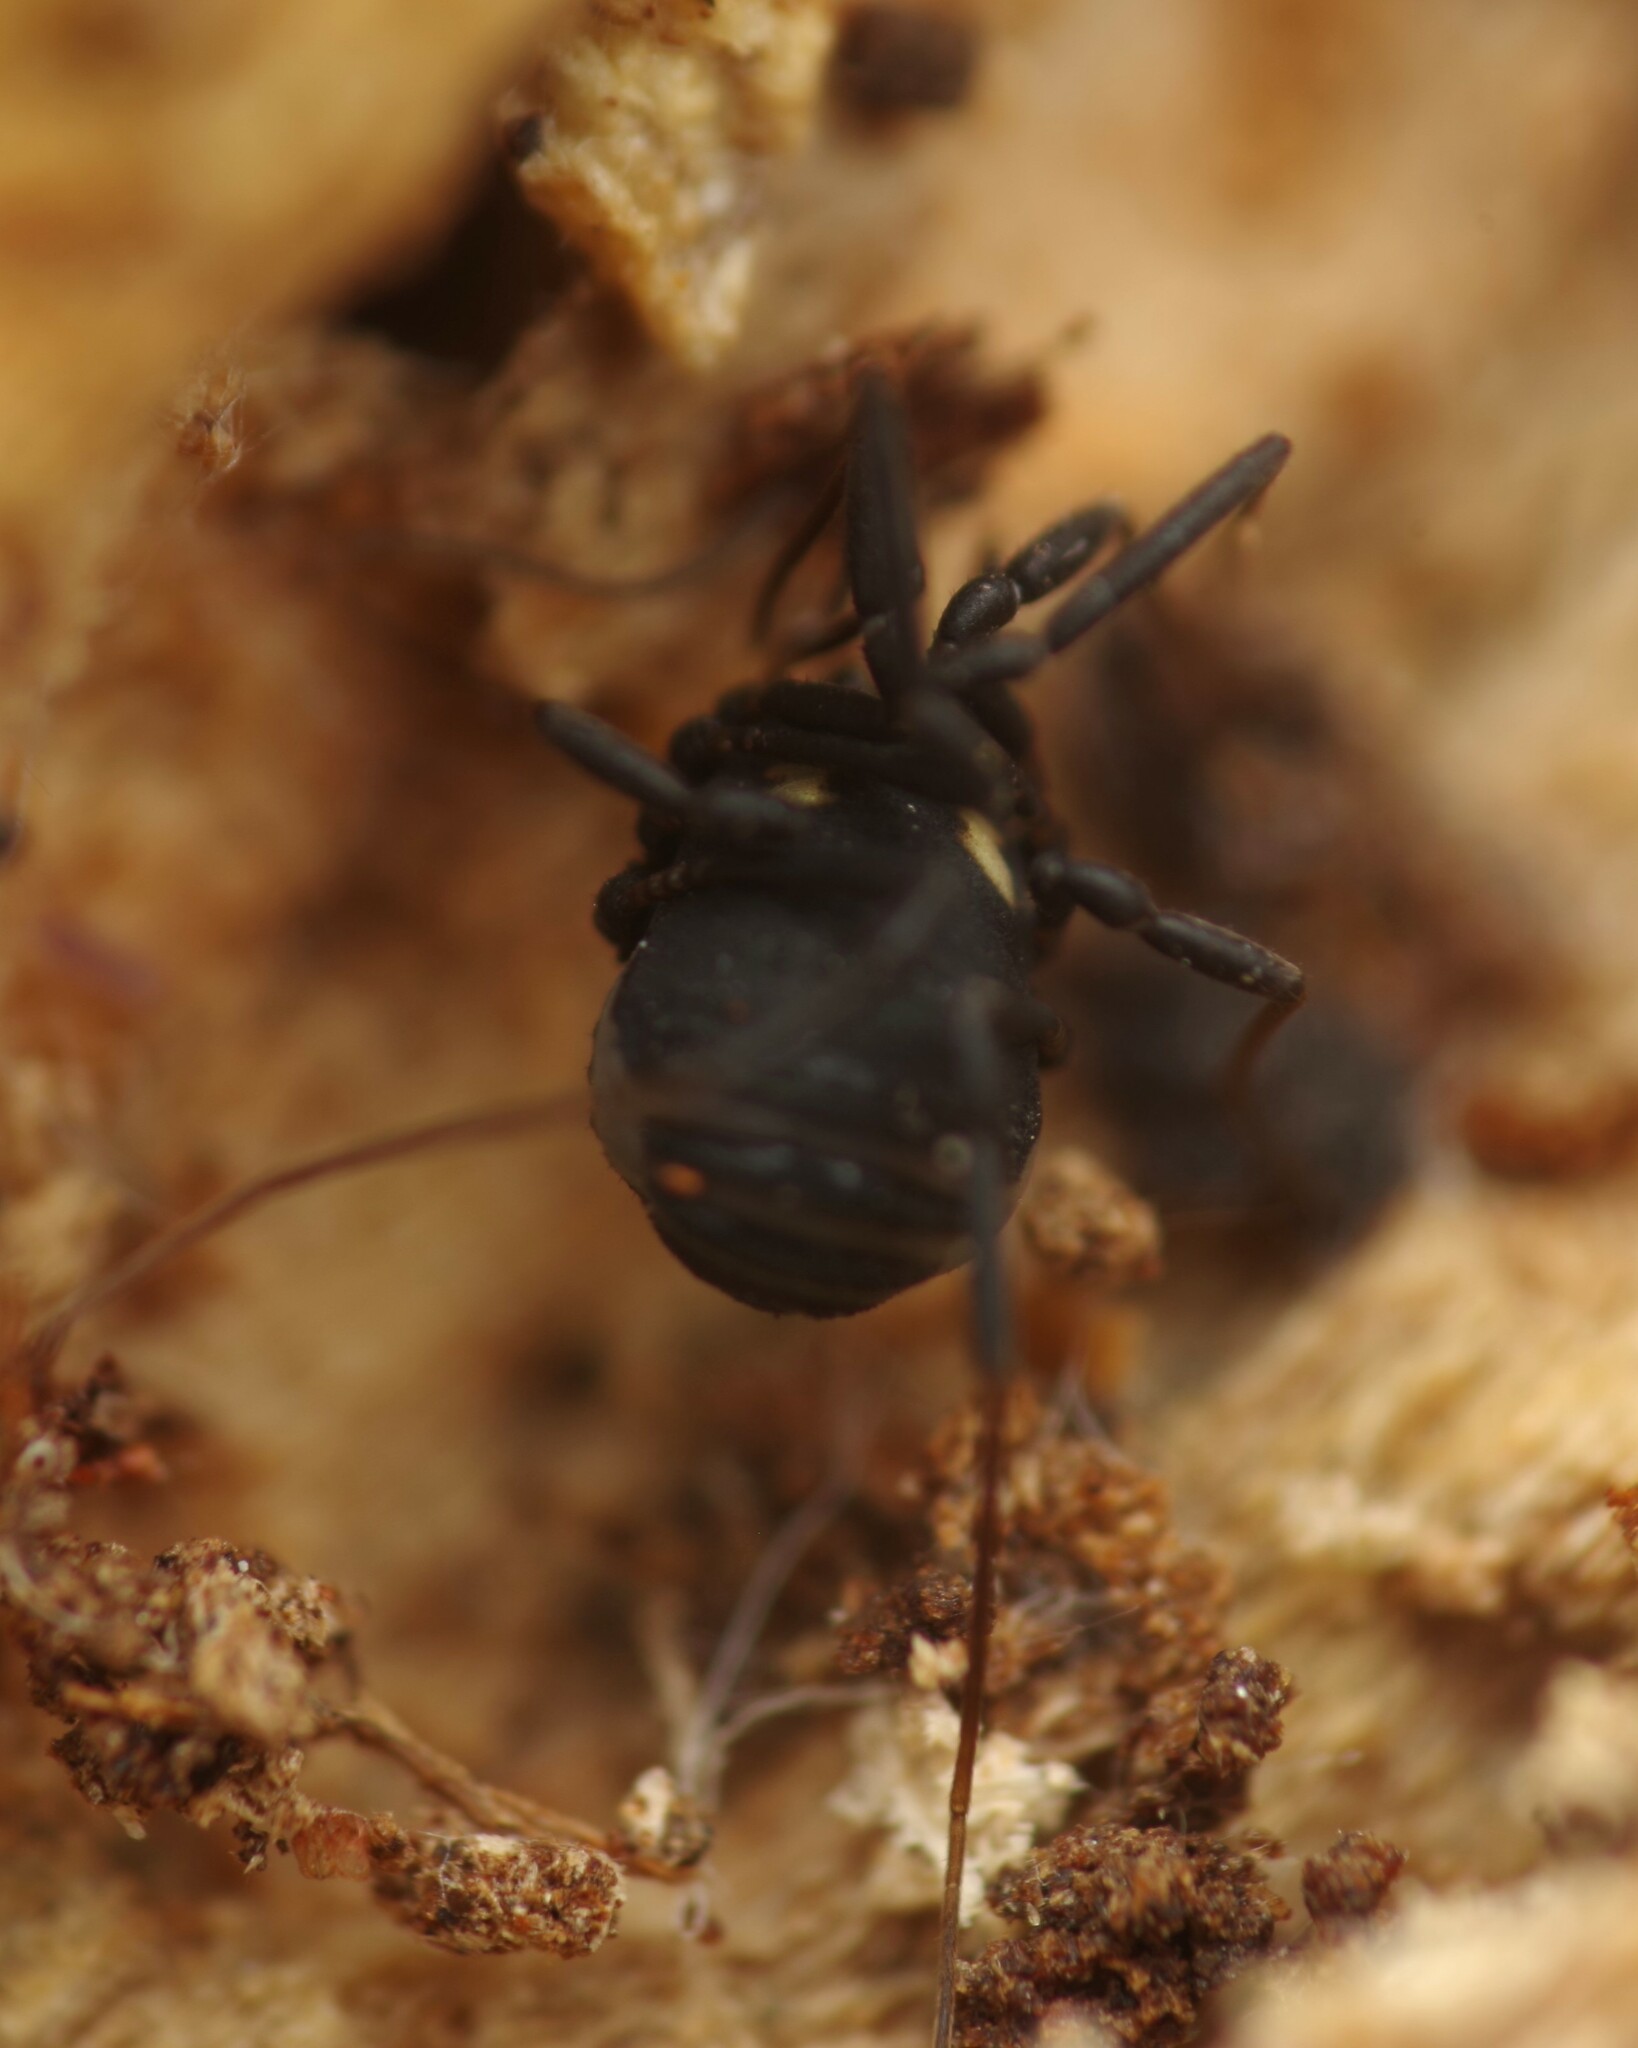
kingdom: Animalia
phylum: Arthropoda
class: Arachnida
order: Opiliones
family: Nemastomatidae
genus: Nemastoma
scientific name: Nemastoma bimaculatum
